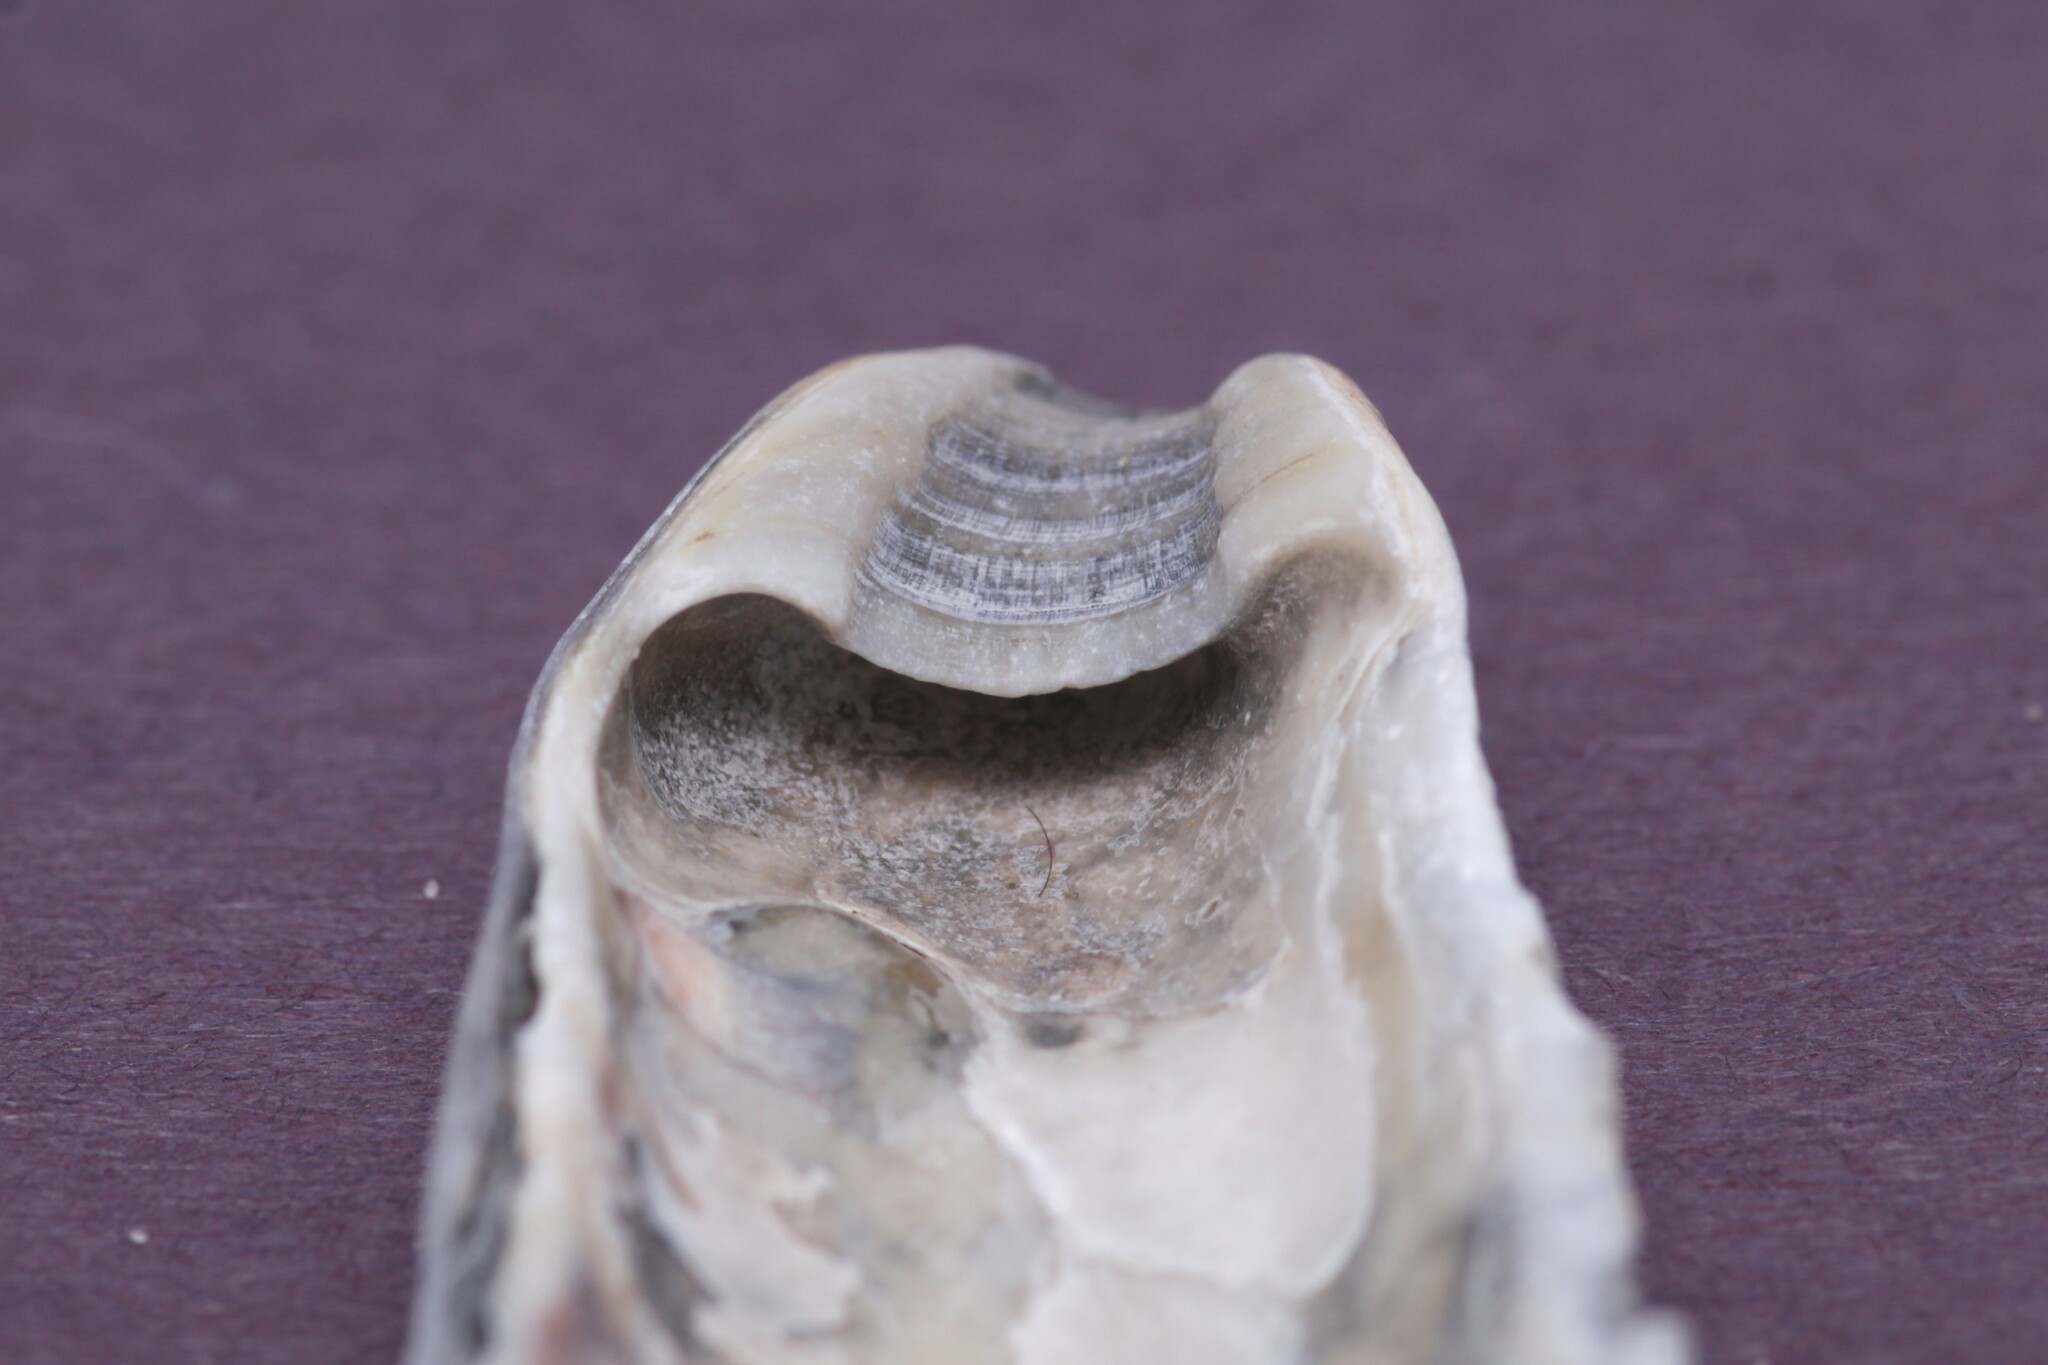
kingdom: Animalia
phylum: Mollusca
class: Bivalvia
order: Ostreida
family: Ostreidae
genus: Crassostrea
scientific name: Crassostrea virginica
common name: American oyster
